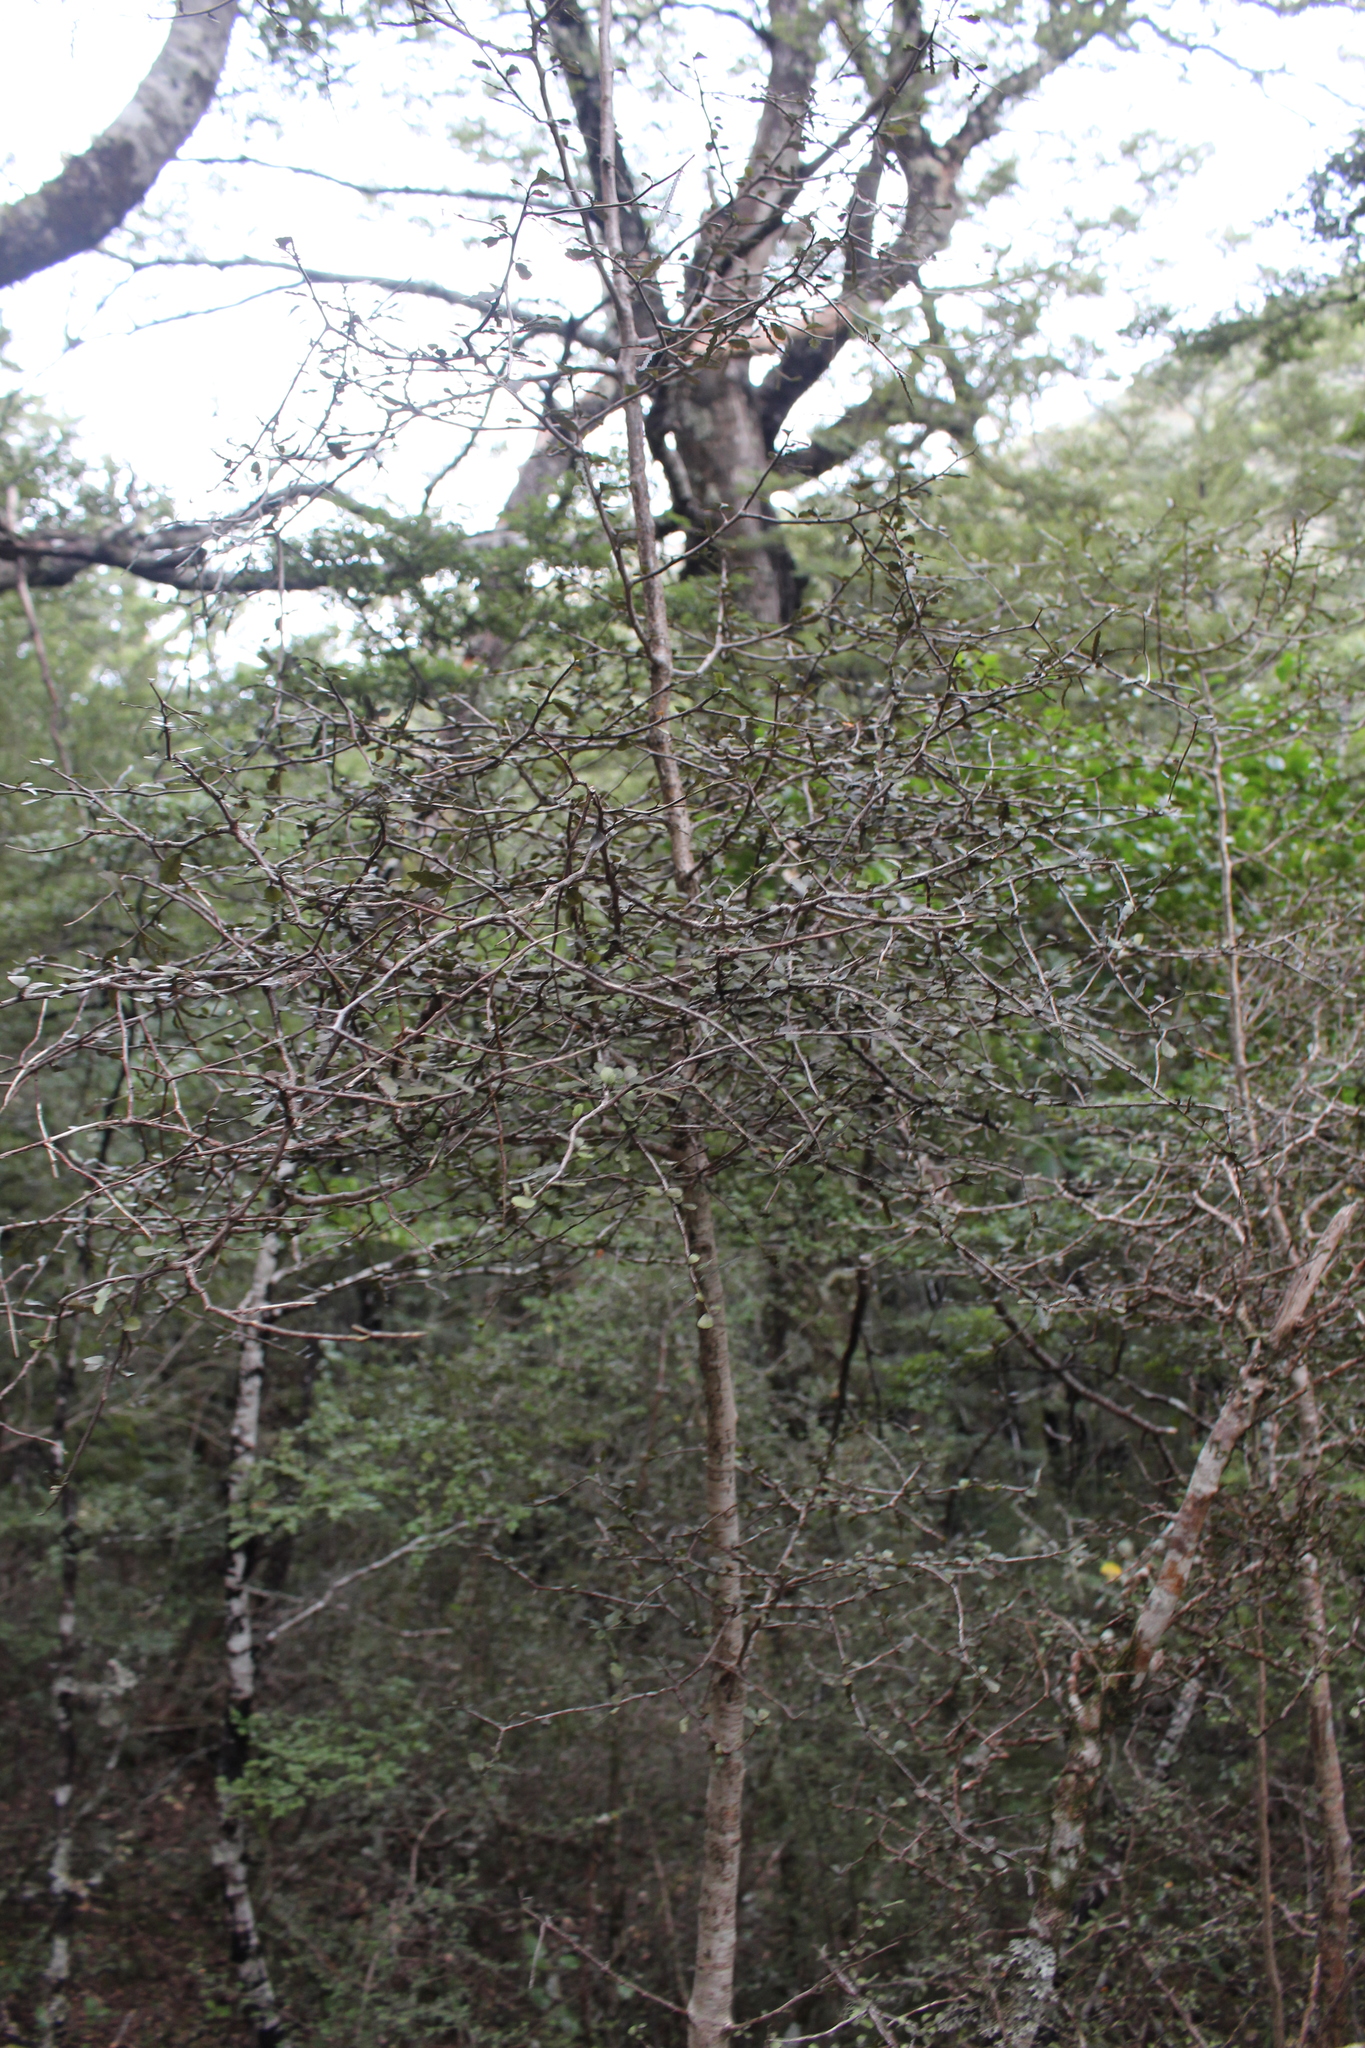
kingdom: Plantae
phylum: Tracheophyta
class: Magnoliopsida
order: Oxalidales
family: Elaeocarpaceae
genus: Elaeocarpus
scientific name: Elaeocarpus hookerianus
